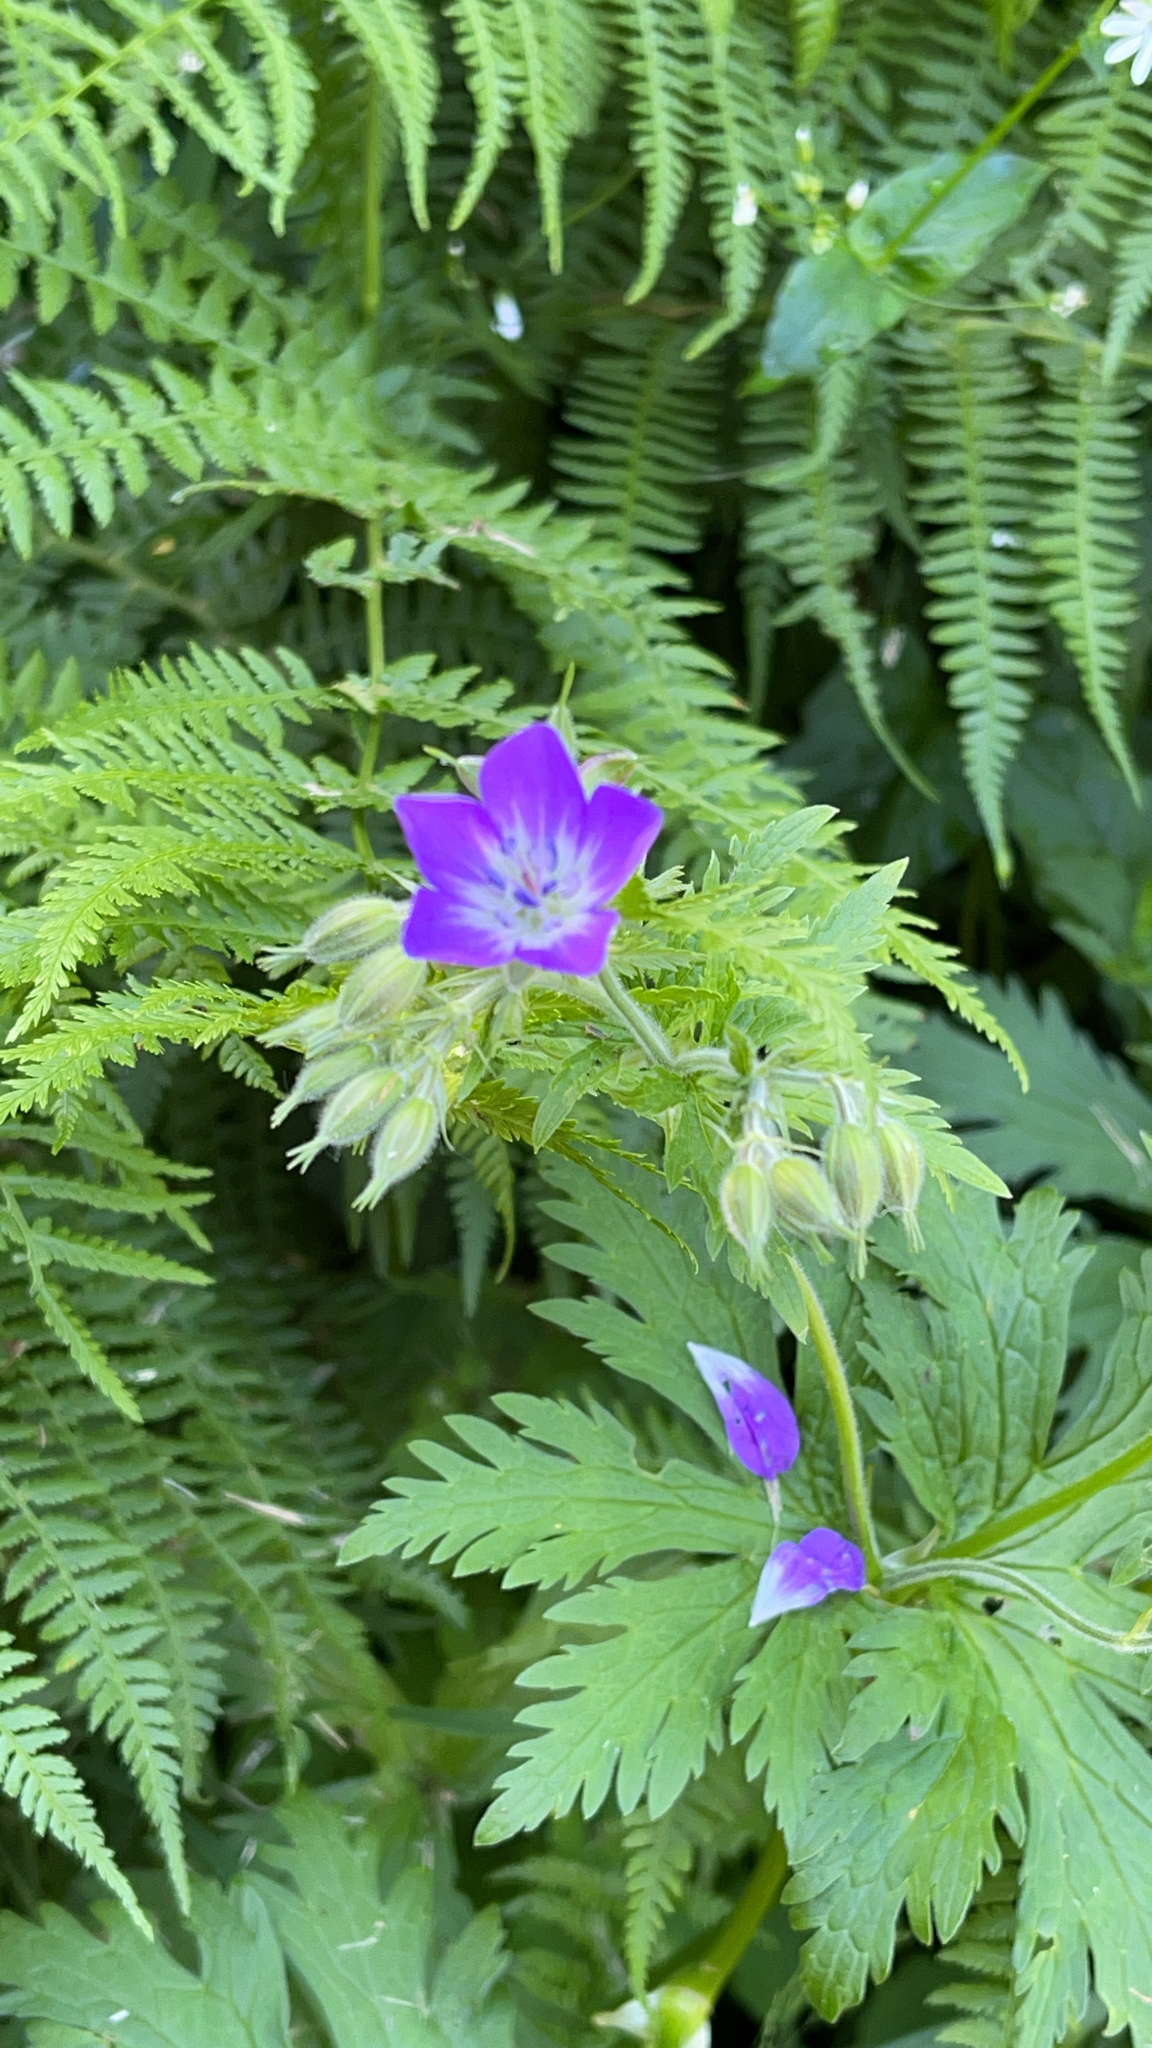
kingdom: Plantae
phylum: Tracheophyta
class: Magnoliopsida
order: Geraniales
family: Geraniaceae
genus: Geranium
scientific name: Geranium sylvaticum
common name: Wood crane's-bill
